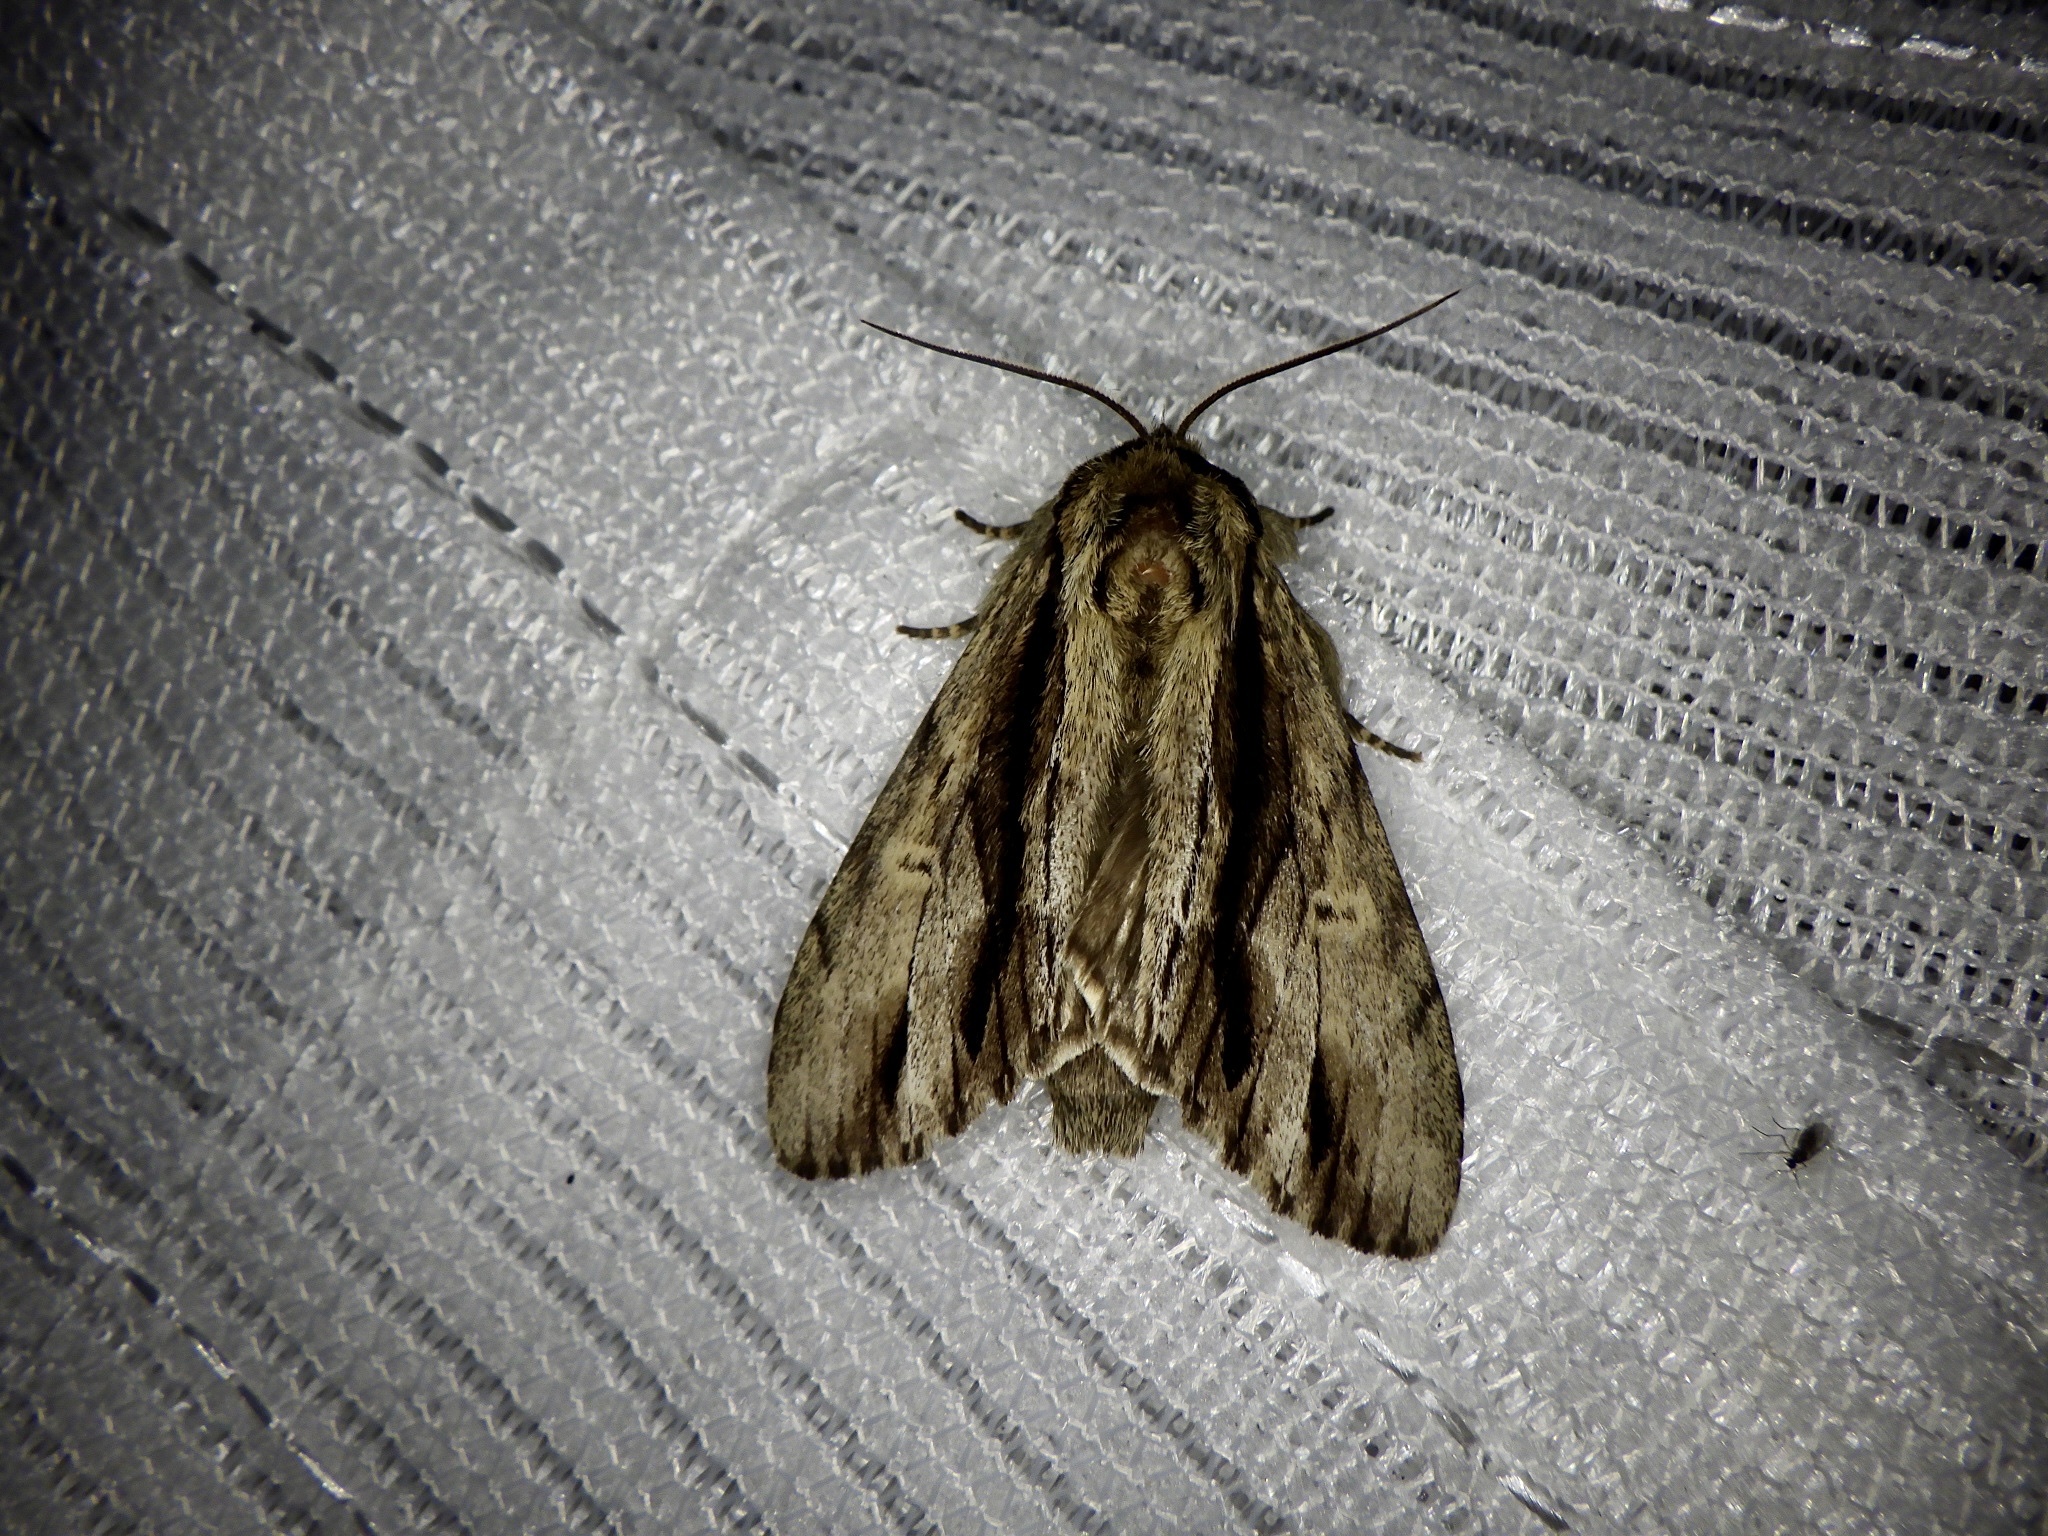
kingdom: Animalia
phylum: Arthropoda
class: Insecta
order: Lepidoptera
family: Notodontidae
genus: Shaka
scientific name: Shaka atrovittatus
